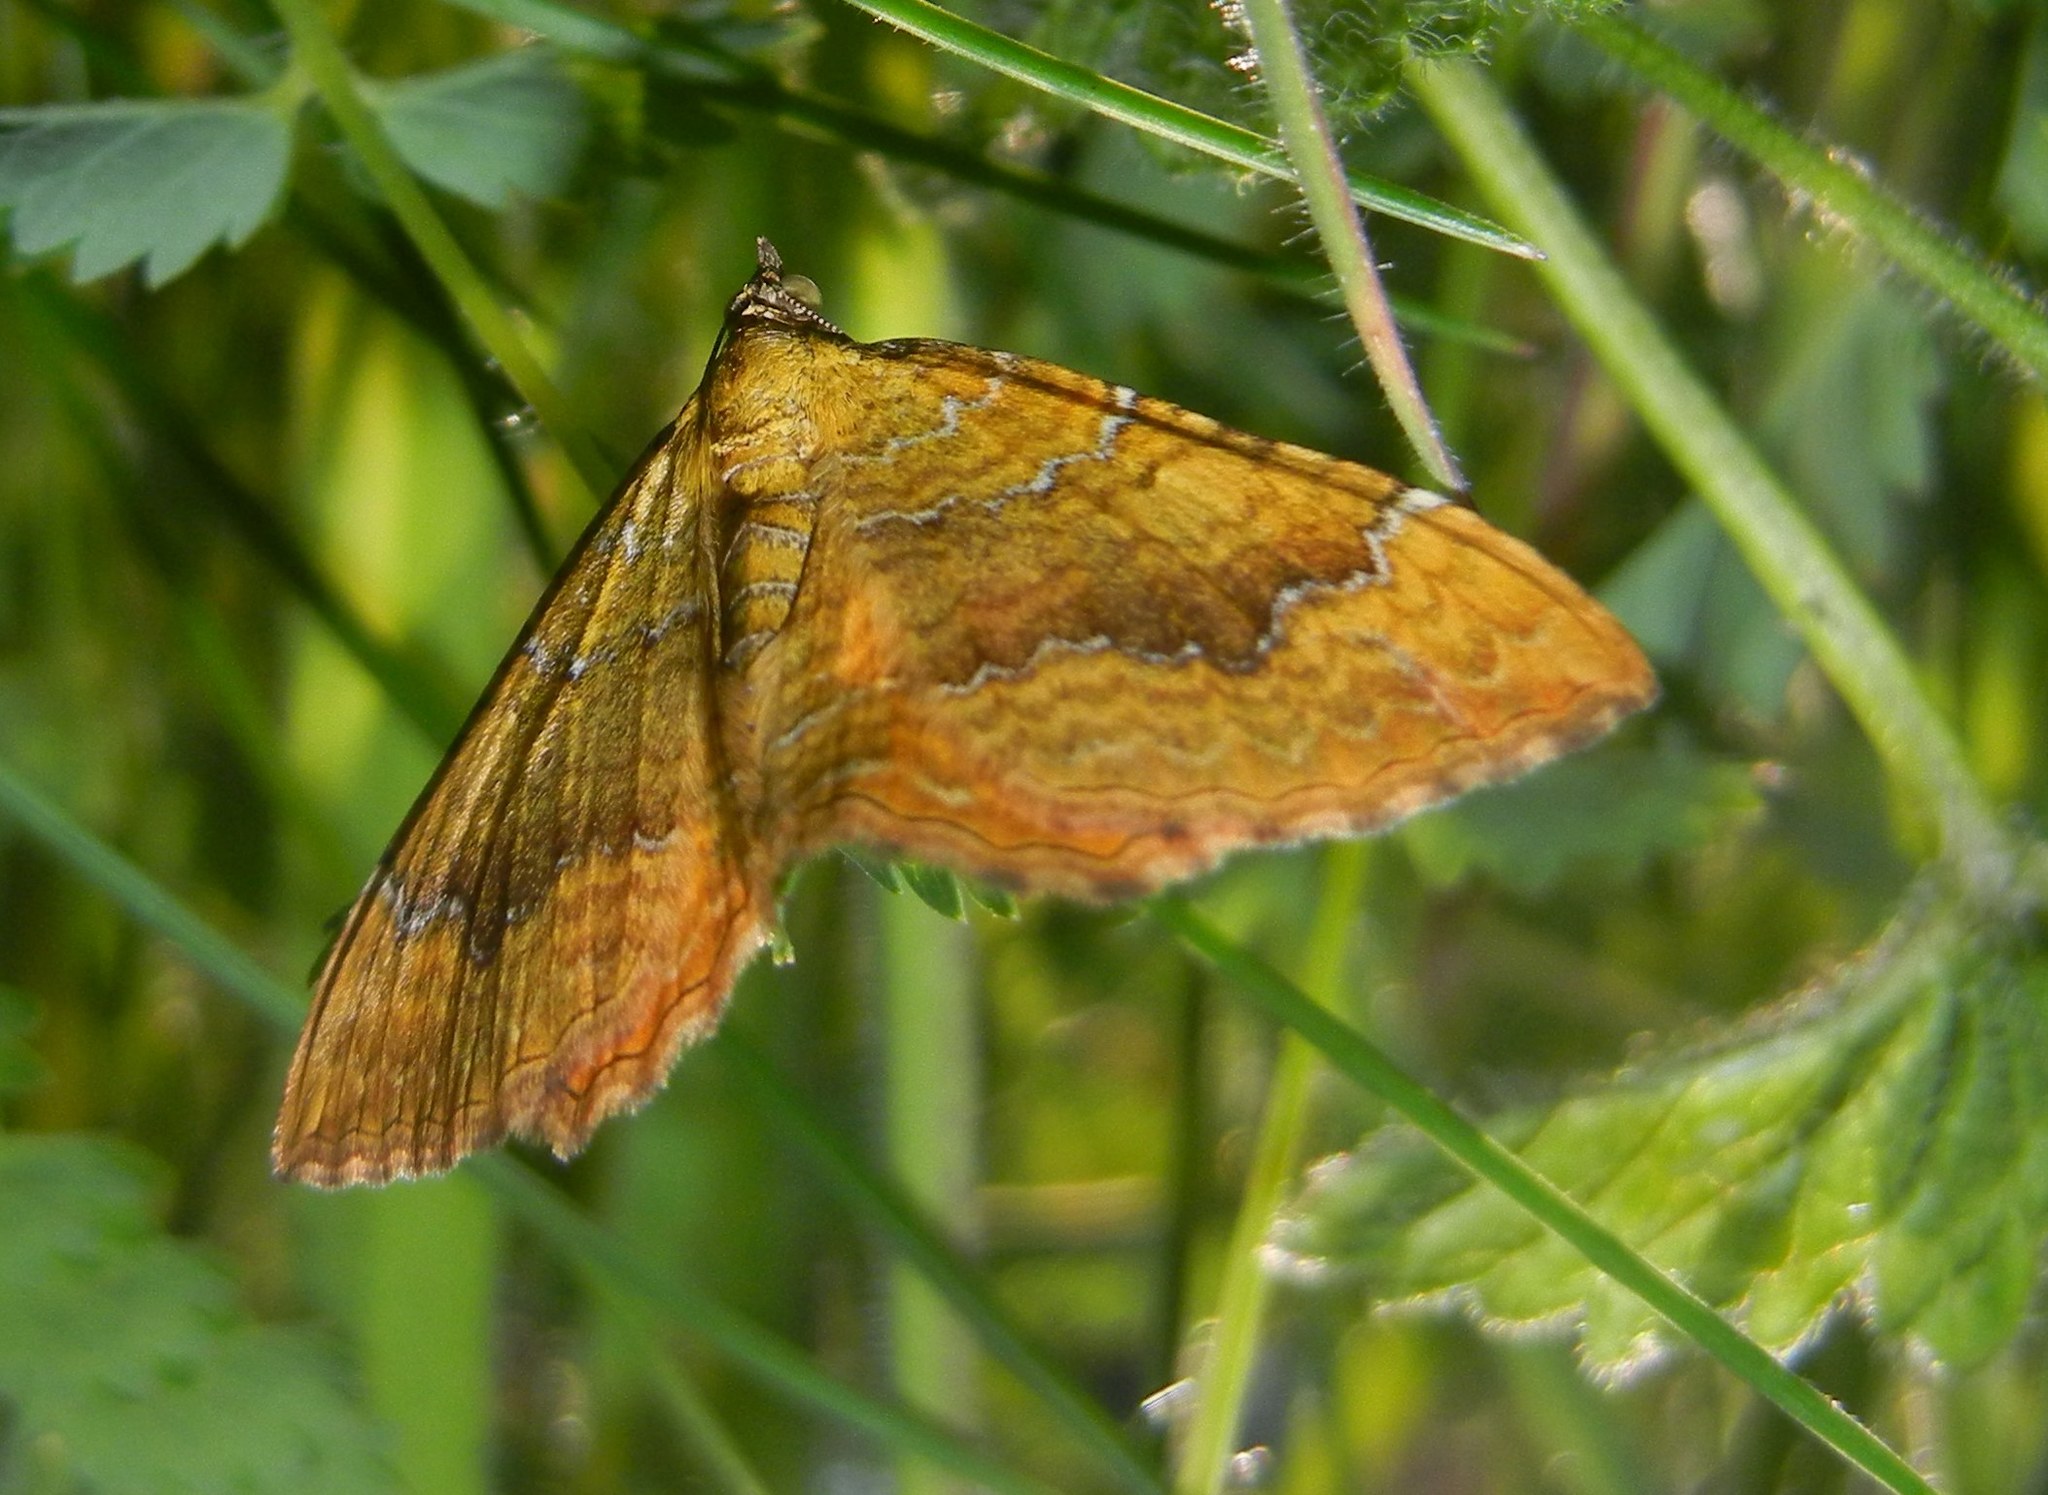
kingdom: Animalia
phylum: Arthropoda
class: Insecta
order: Lepidoptera
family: Geometridae
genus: Camptogramma
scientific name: Camptogramma bilineata
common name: Yellow shell
